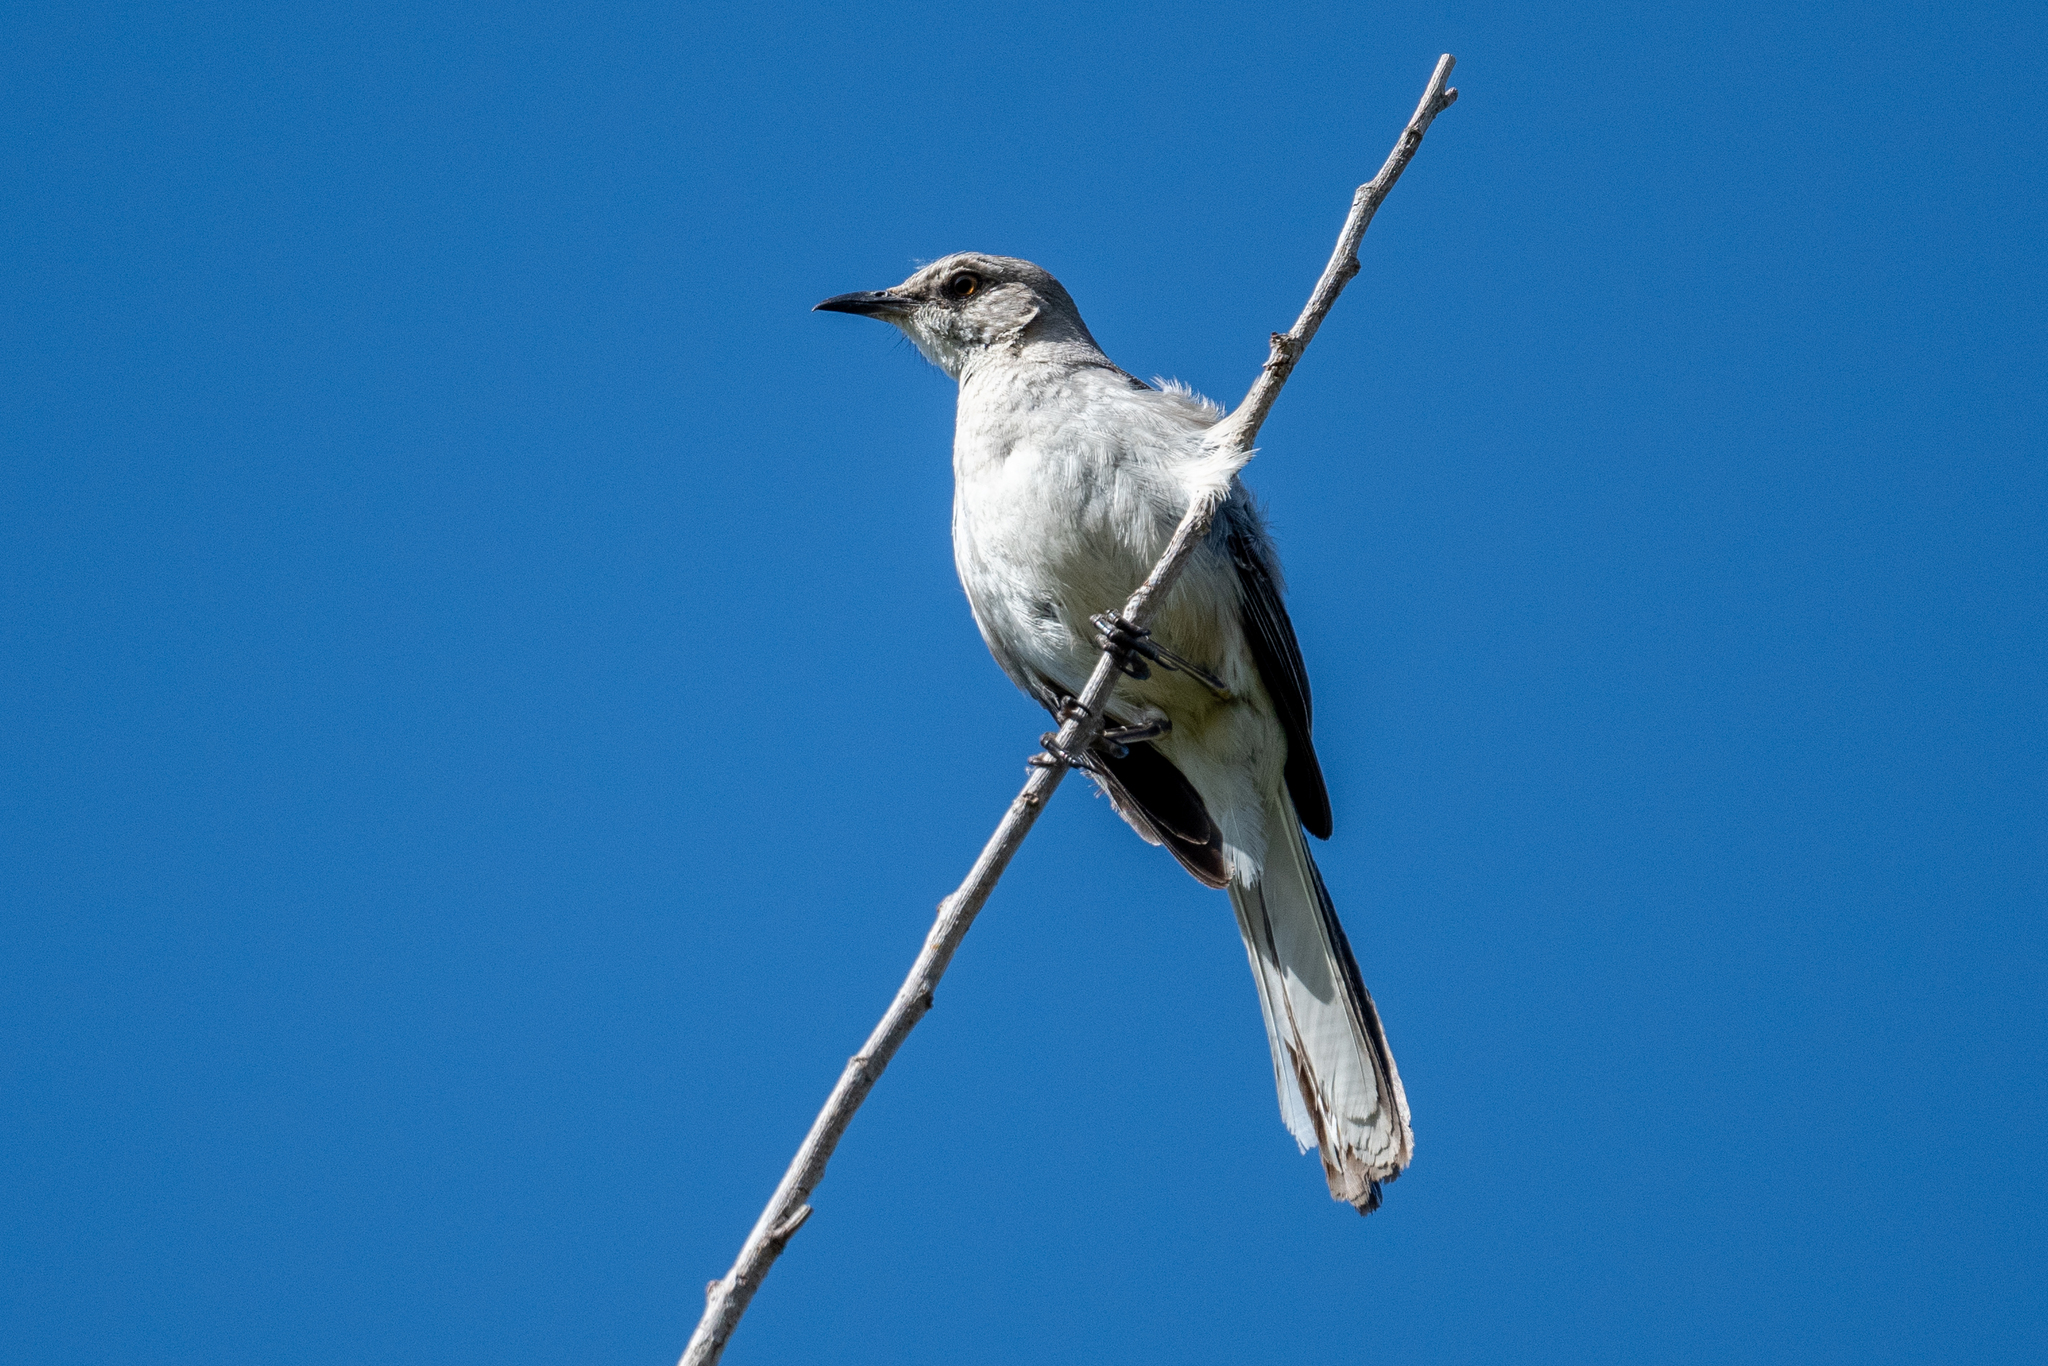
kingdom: Animalia
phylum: Chordata
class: Aves
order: Passeriformes
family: Mimidae
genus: Mimus
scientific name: Mimus polyglottos
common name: Northern mockingbird
